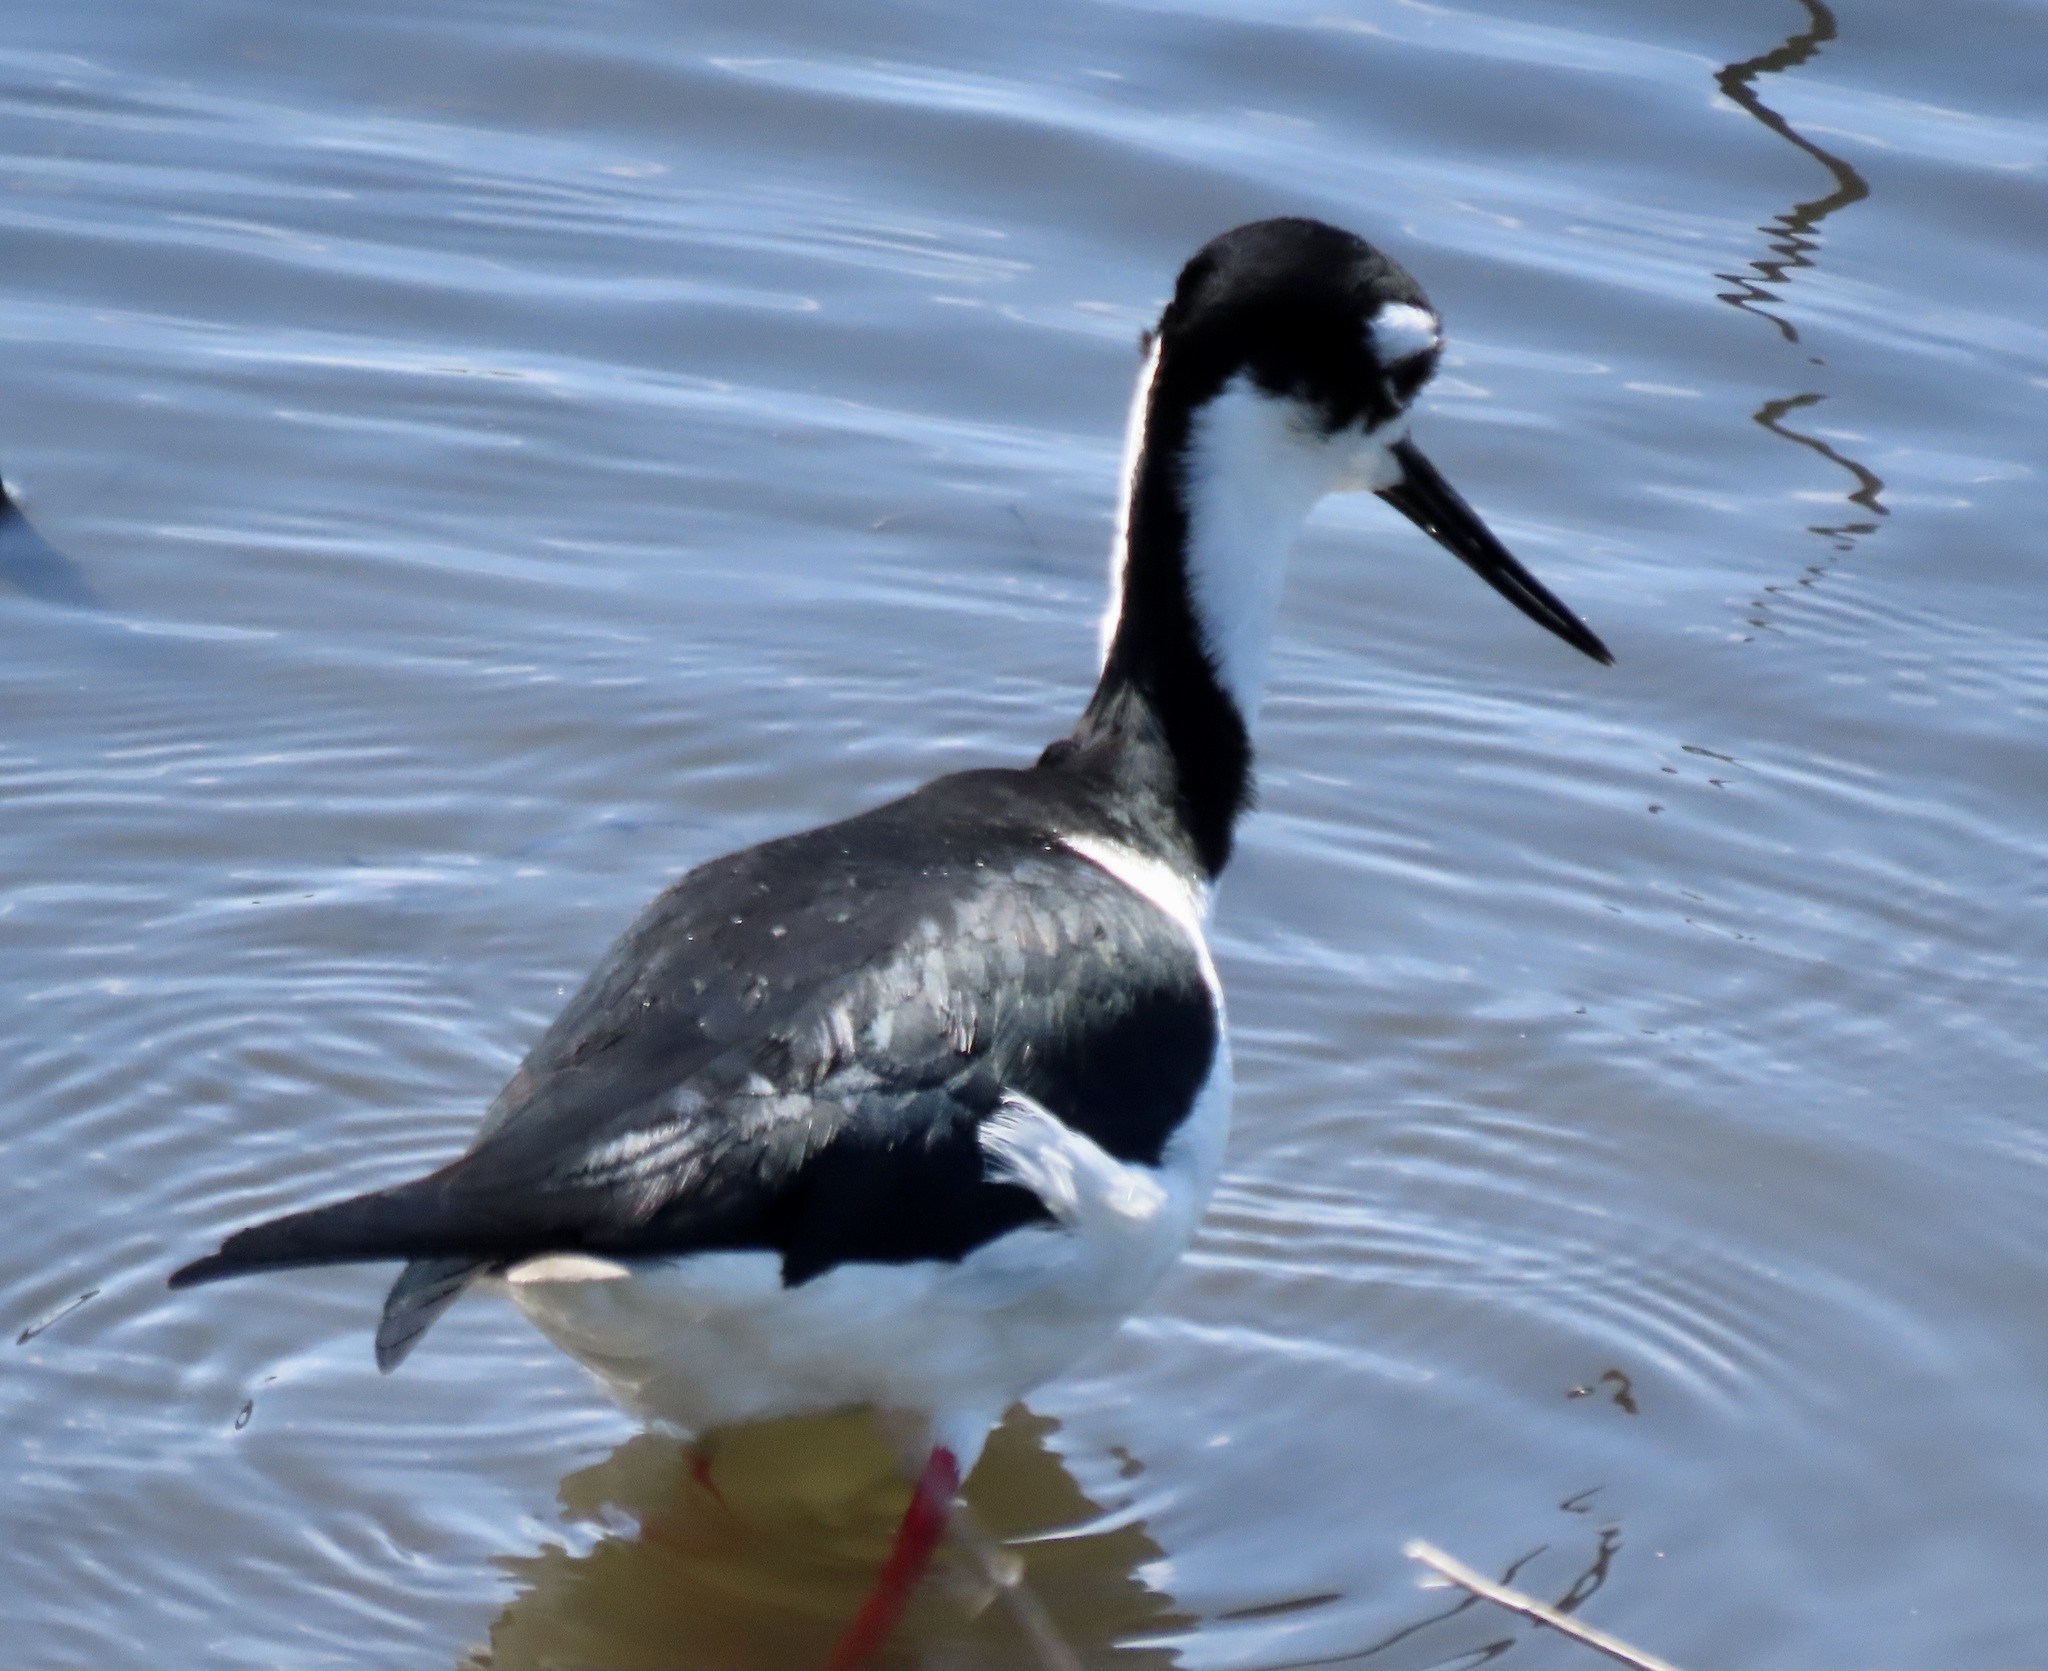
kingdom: Animalia
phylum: Chordata
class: Aves
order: Charadriiformes
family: Recurvirostridae
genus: Himantopus
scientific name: Himantopus mexicanus
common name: Black-necked stilt
